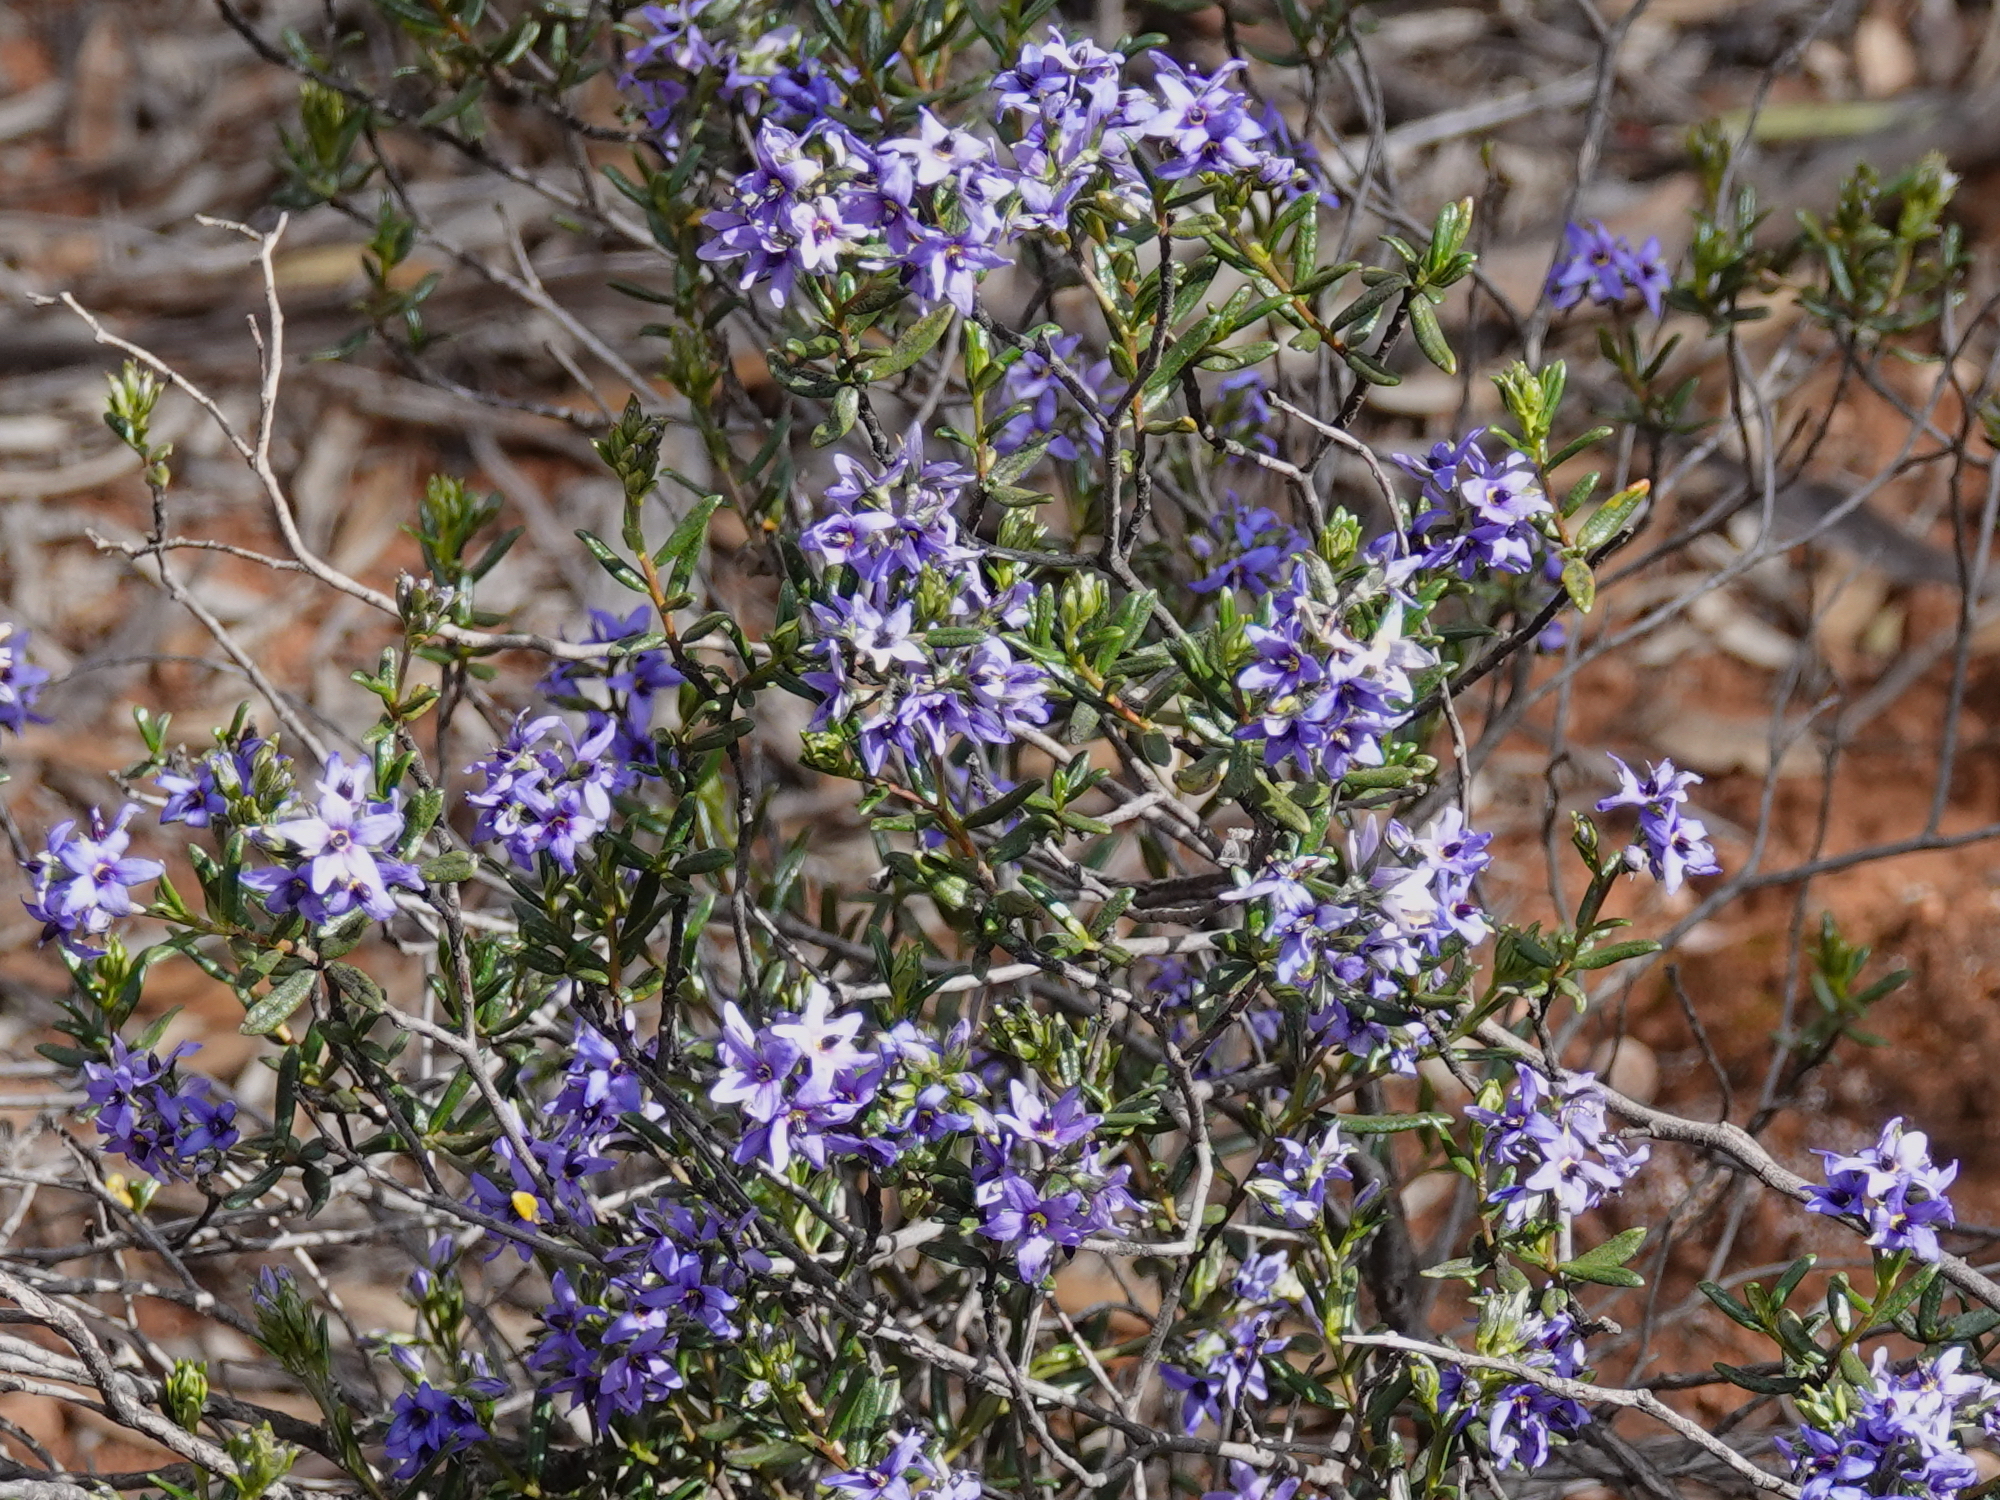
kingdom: Plantae
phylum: Tracheophyta
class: Magnoliopsida
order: Boraginales
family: Ehretiaceae
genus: Halgania
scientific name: Halgania andromedifolia
